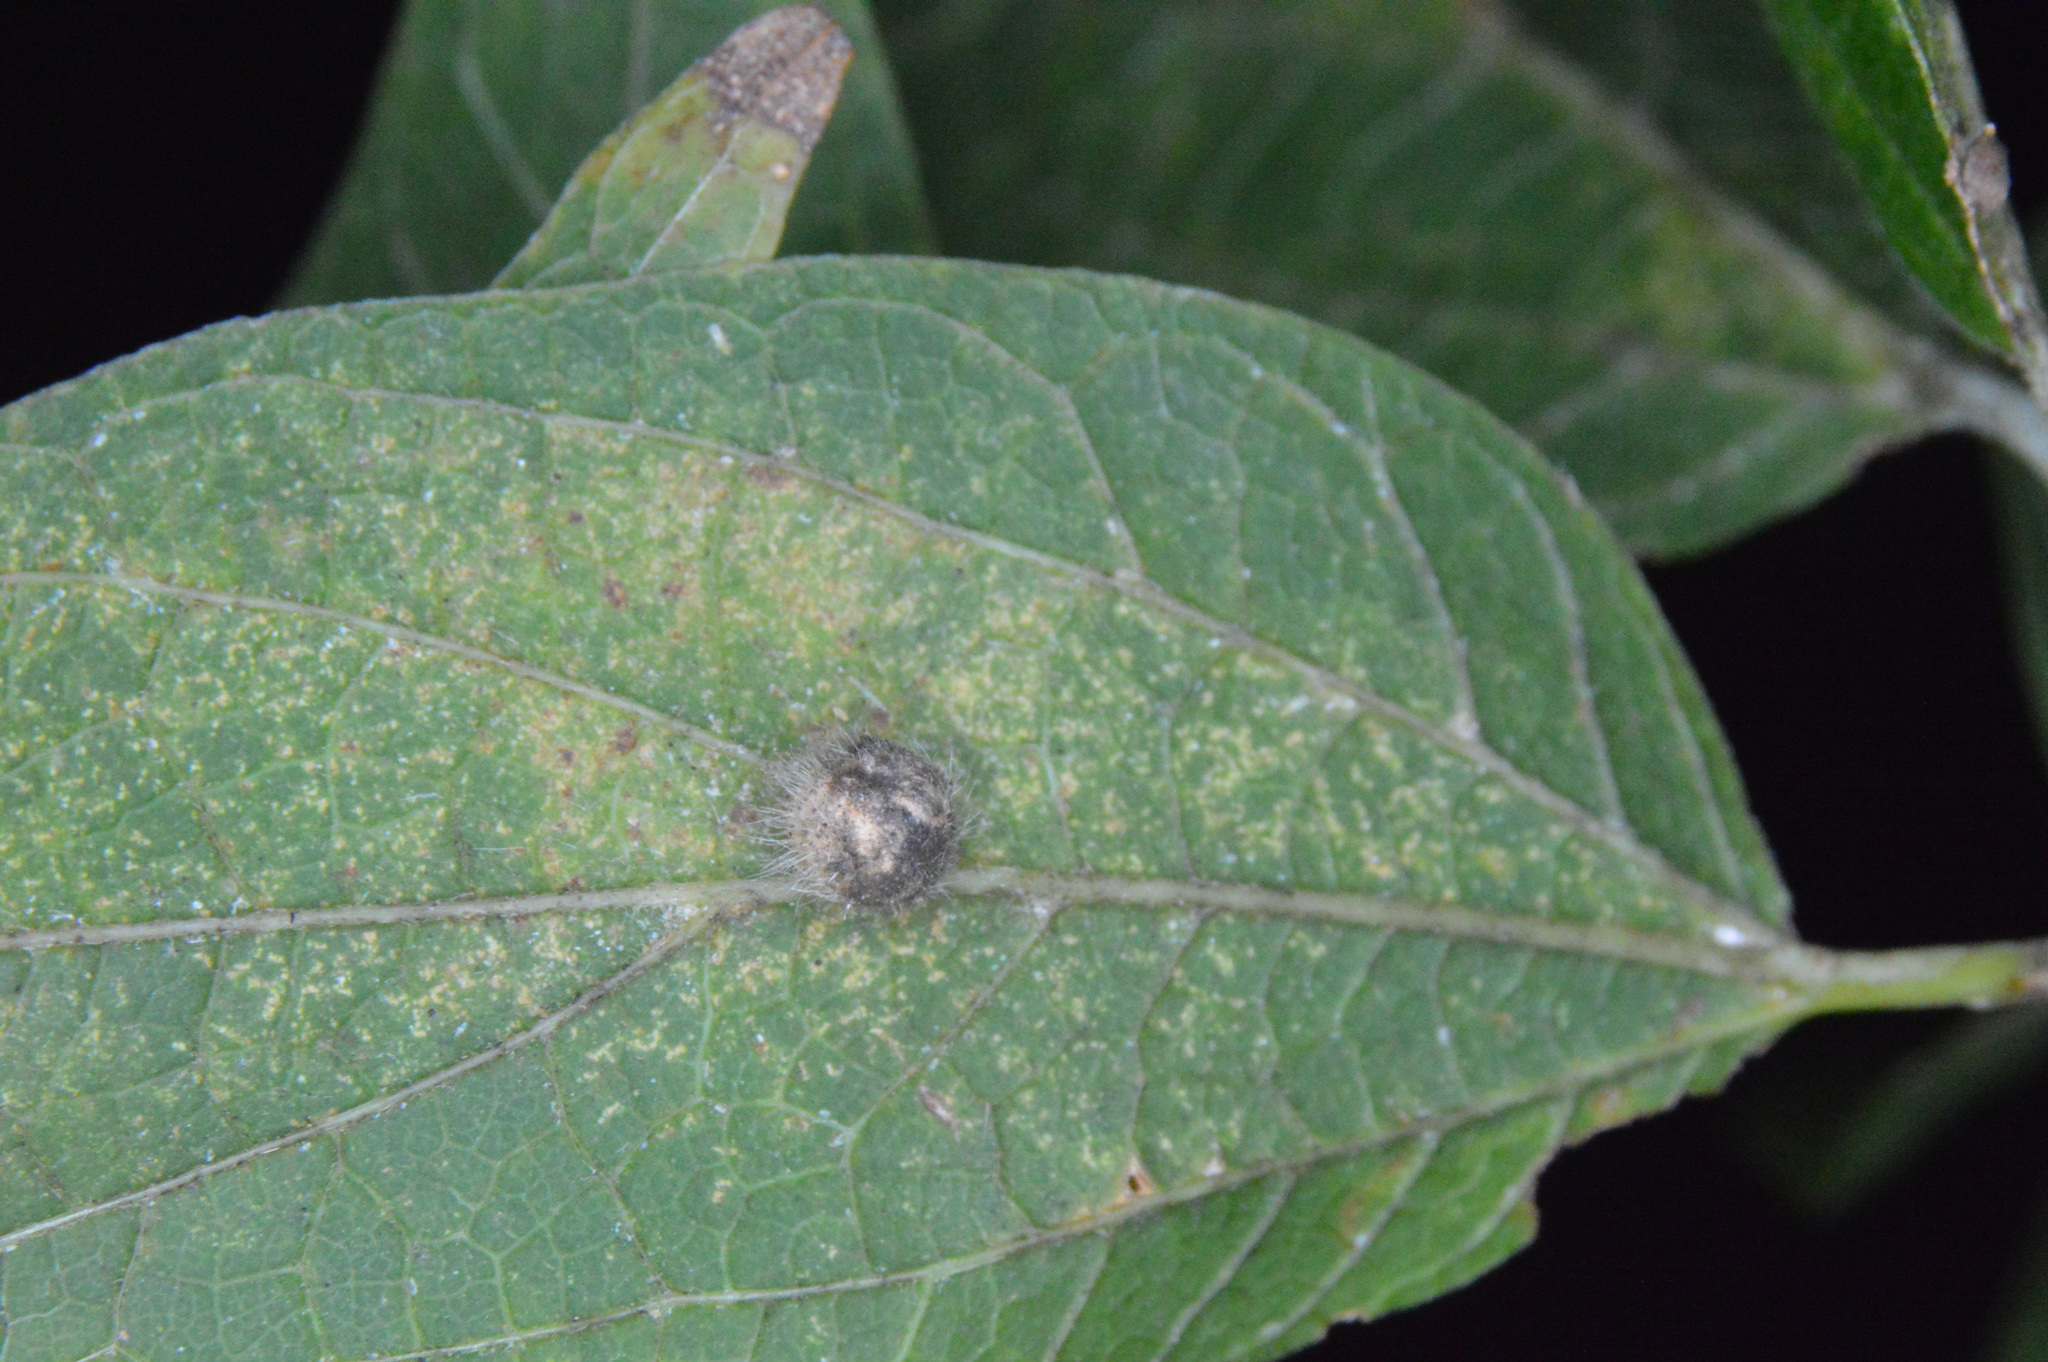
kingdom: Animalia
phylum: Arthropoda
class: Insecta
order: Diptera
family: Cecidomyiidae
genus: Celticecis
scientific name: Celticecis pubescens
